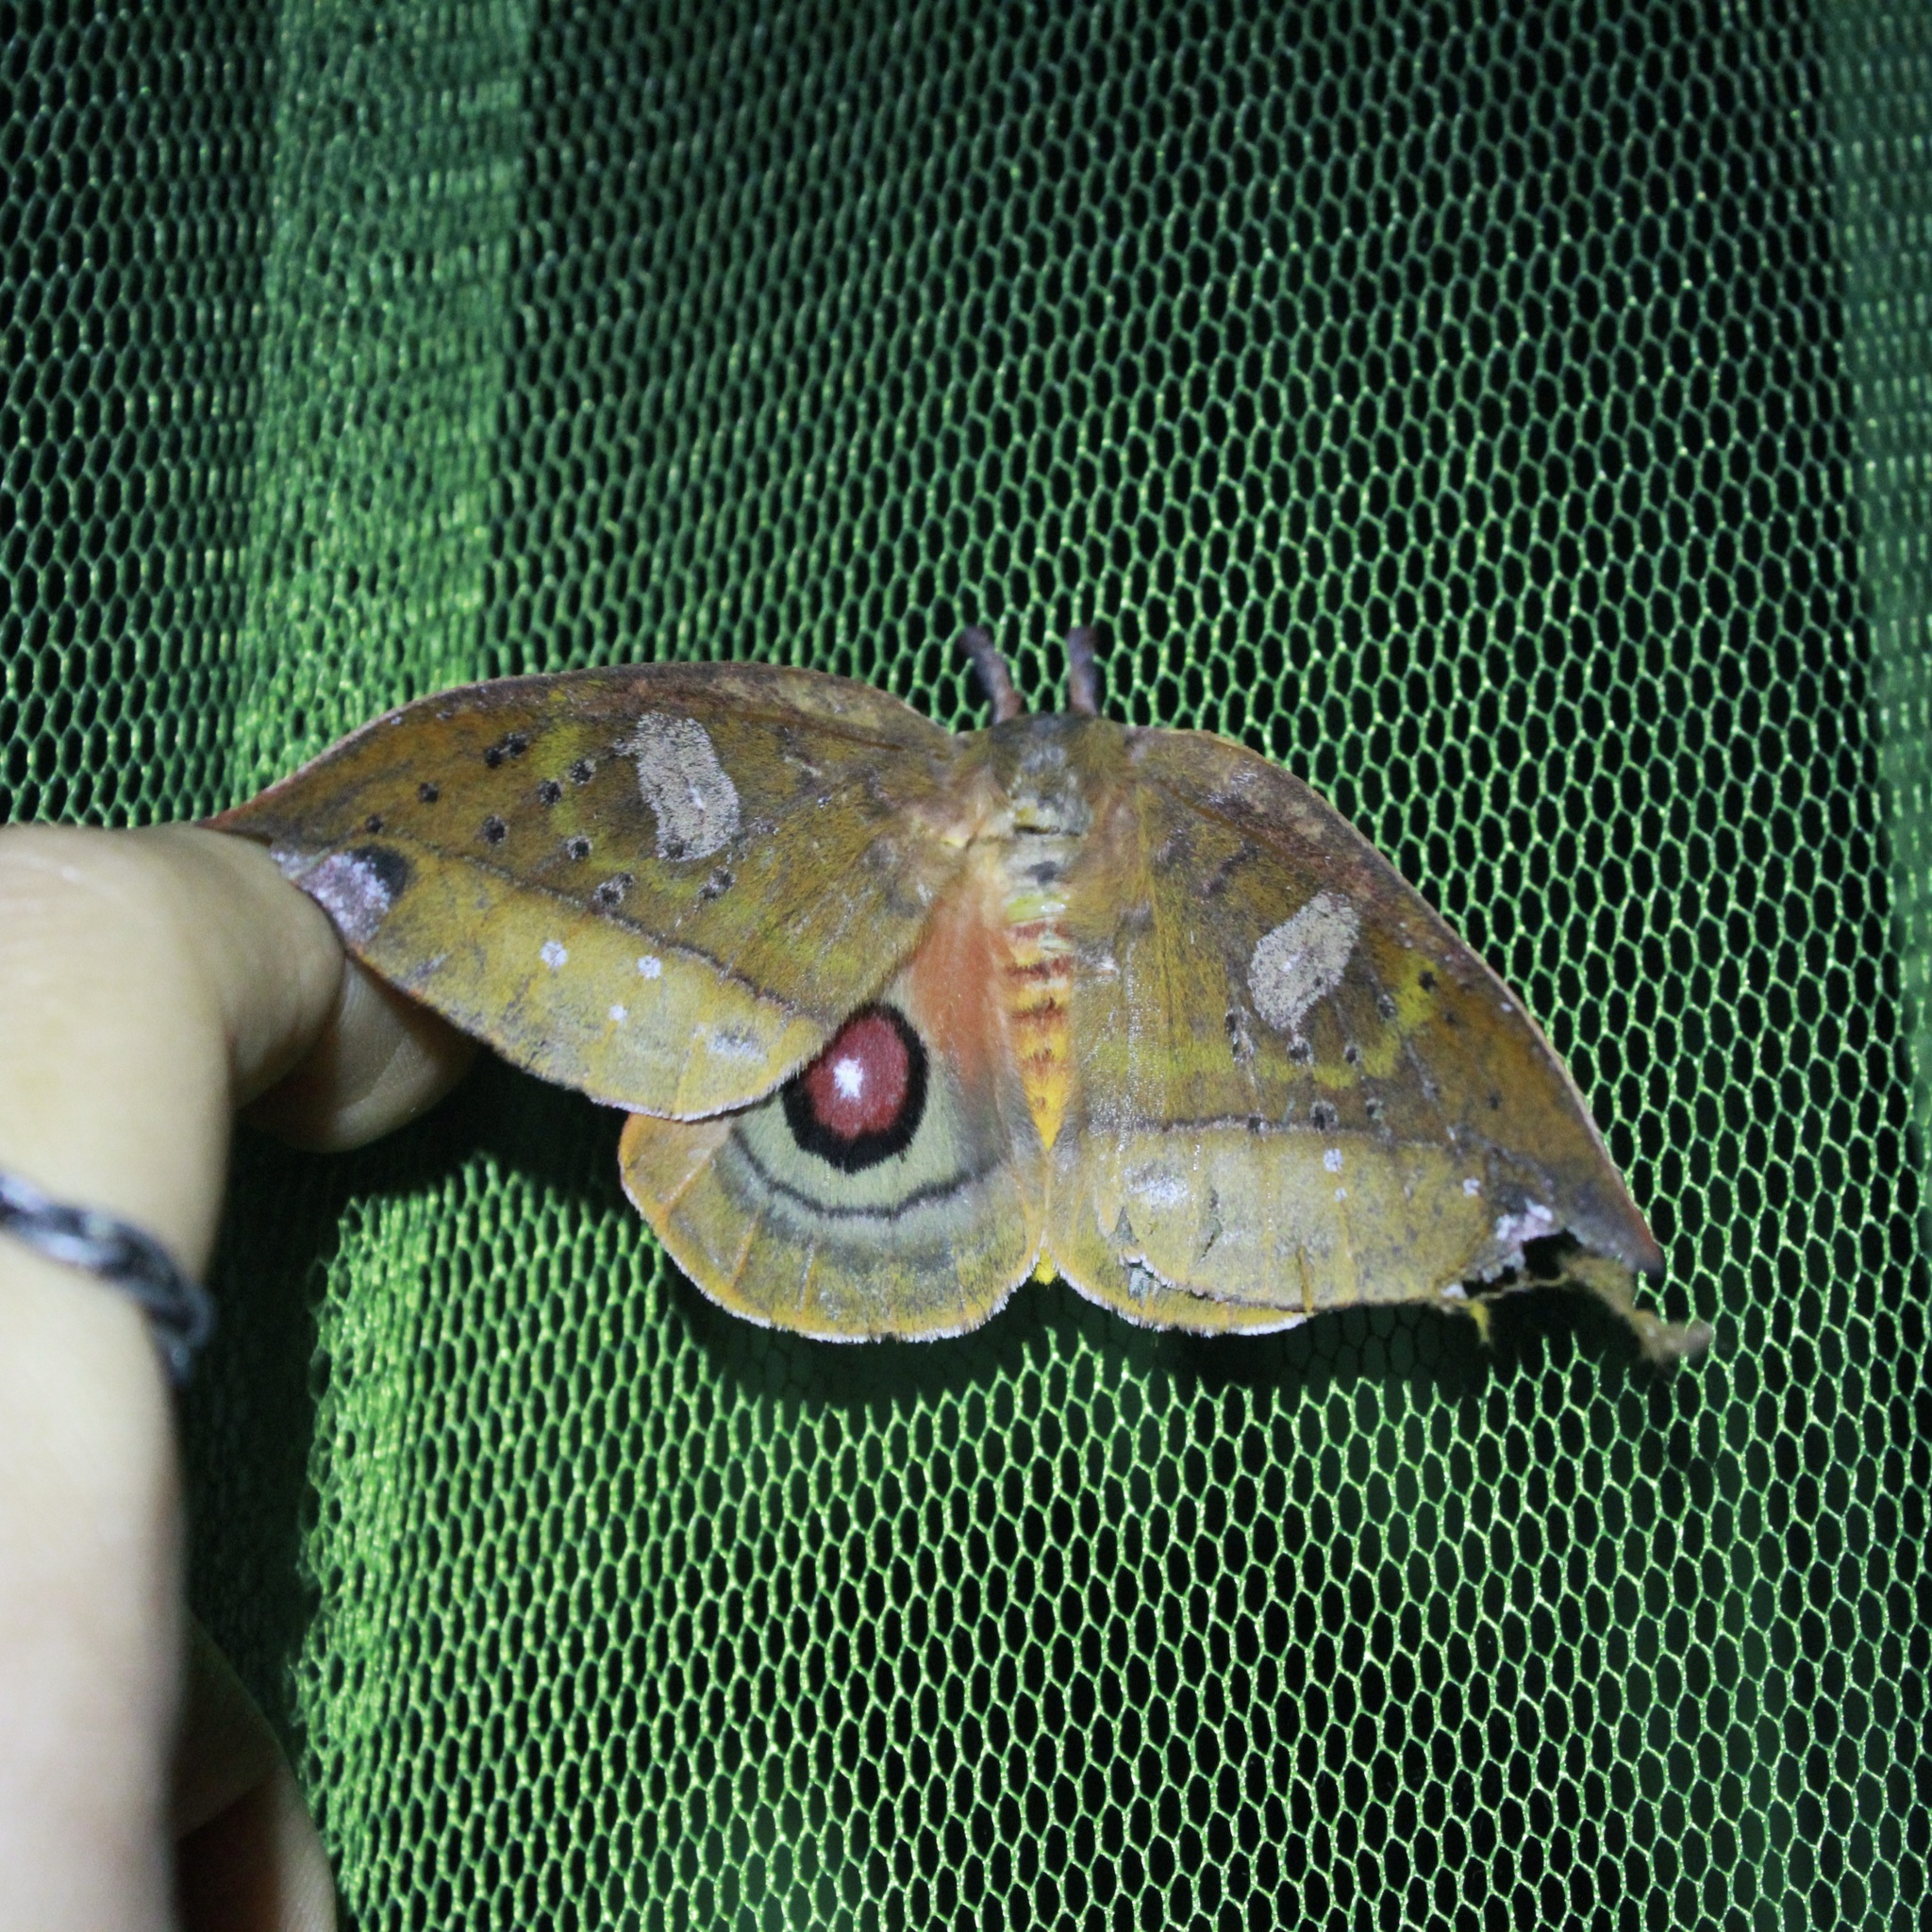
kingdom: Animalia
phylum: Arthropoda
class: Insecta
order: Lepidoptera
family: Saturniidae
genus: Automerina
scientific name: Automerina auletes
